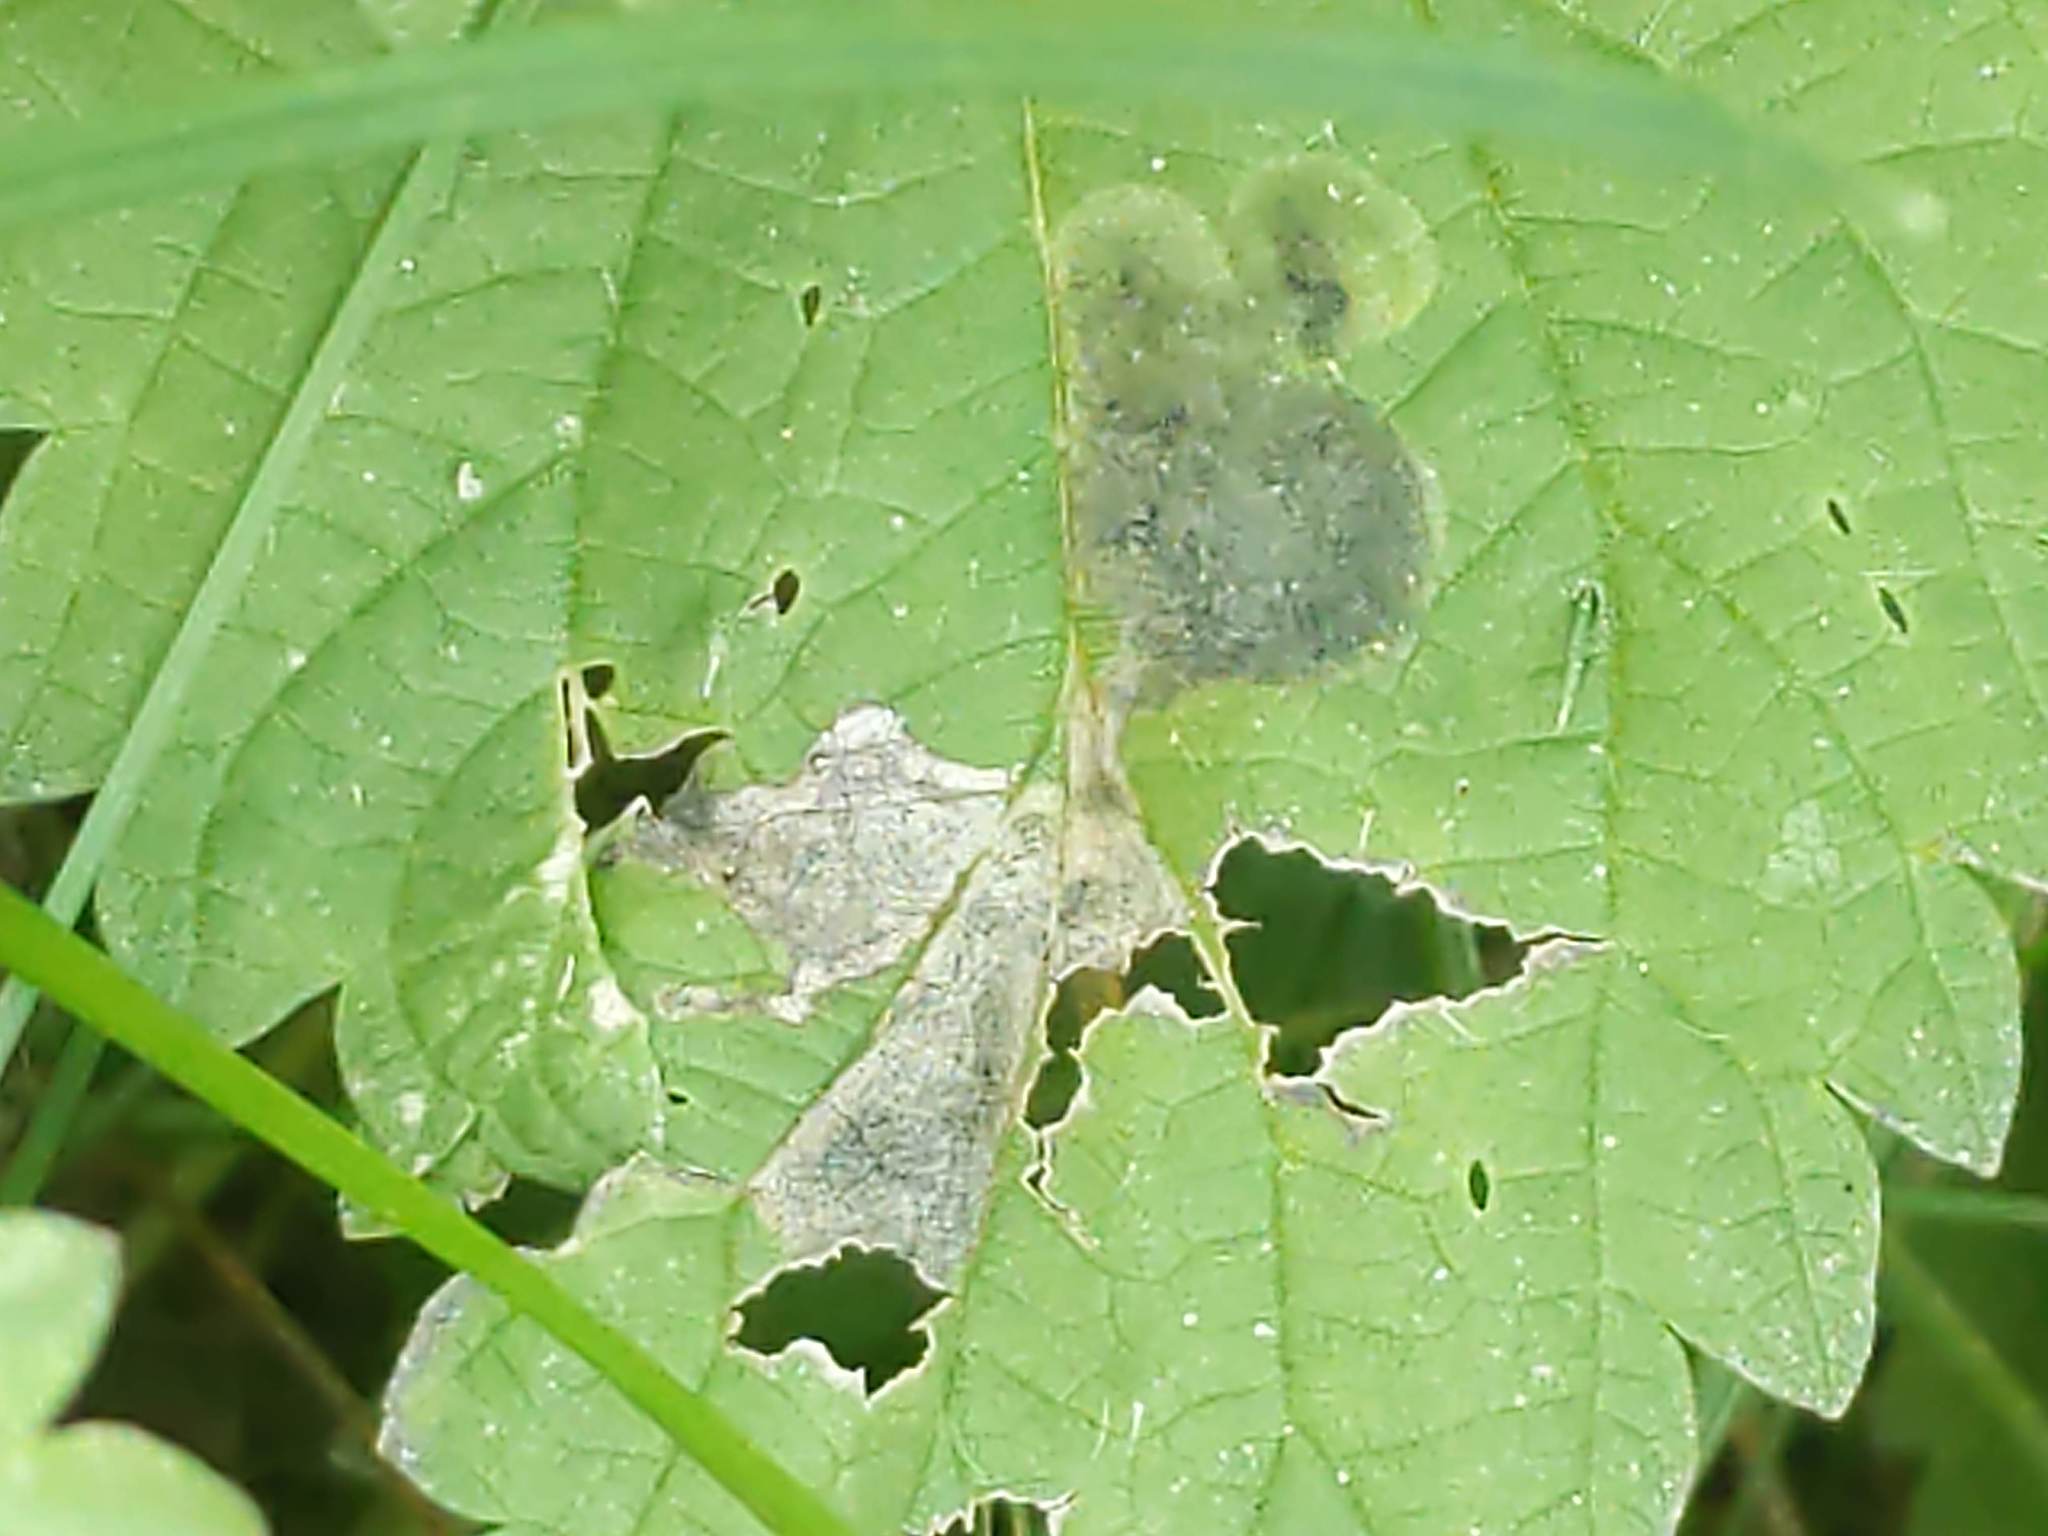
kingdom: Animalia
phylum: Arthropoda
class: Insecta
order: Diptera
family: Agromyzidae
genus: Agromyza
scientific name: Agromyza pseudoreptans
